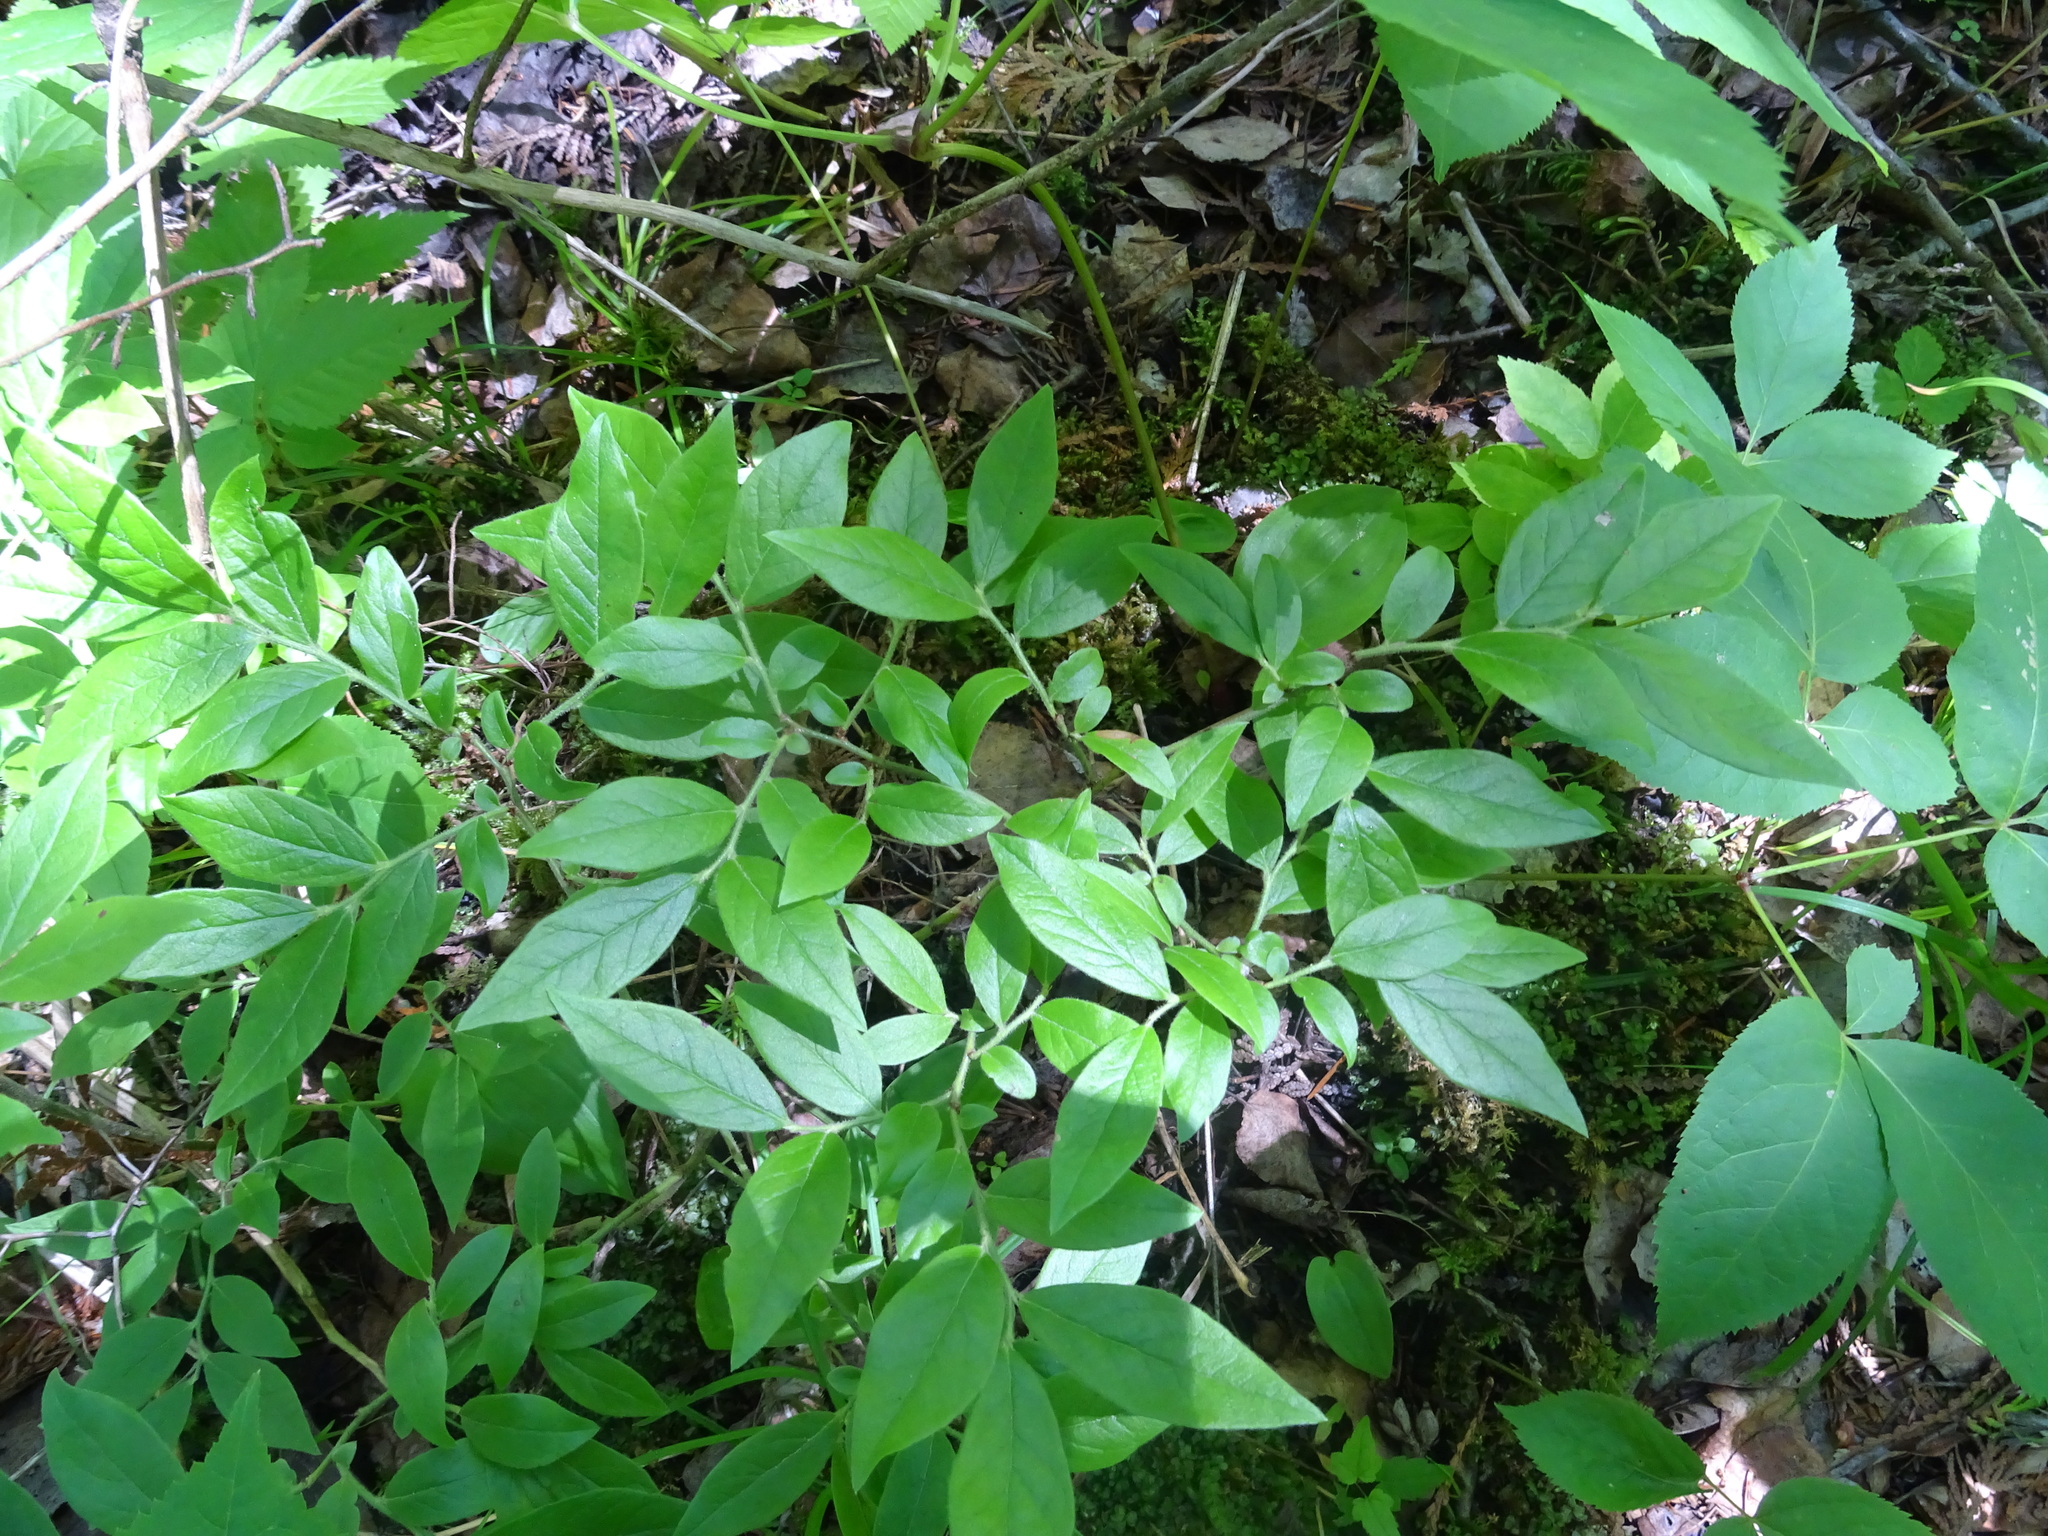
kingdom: Plantae
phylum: Tracheophyta
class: Magnoliopsida
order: Ericales
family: Ericaceae
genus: Vaccinium
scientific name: Vaccinium myrtilloides
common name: Canada blueberry
